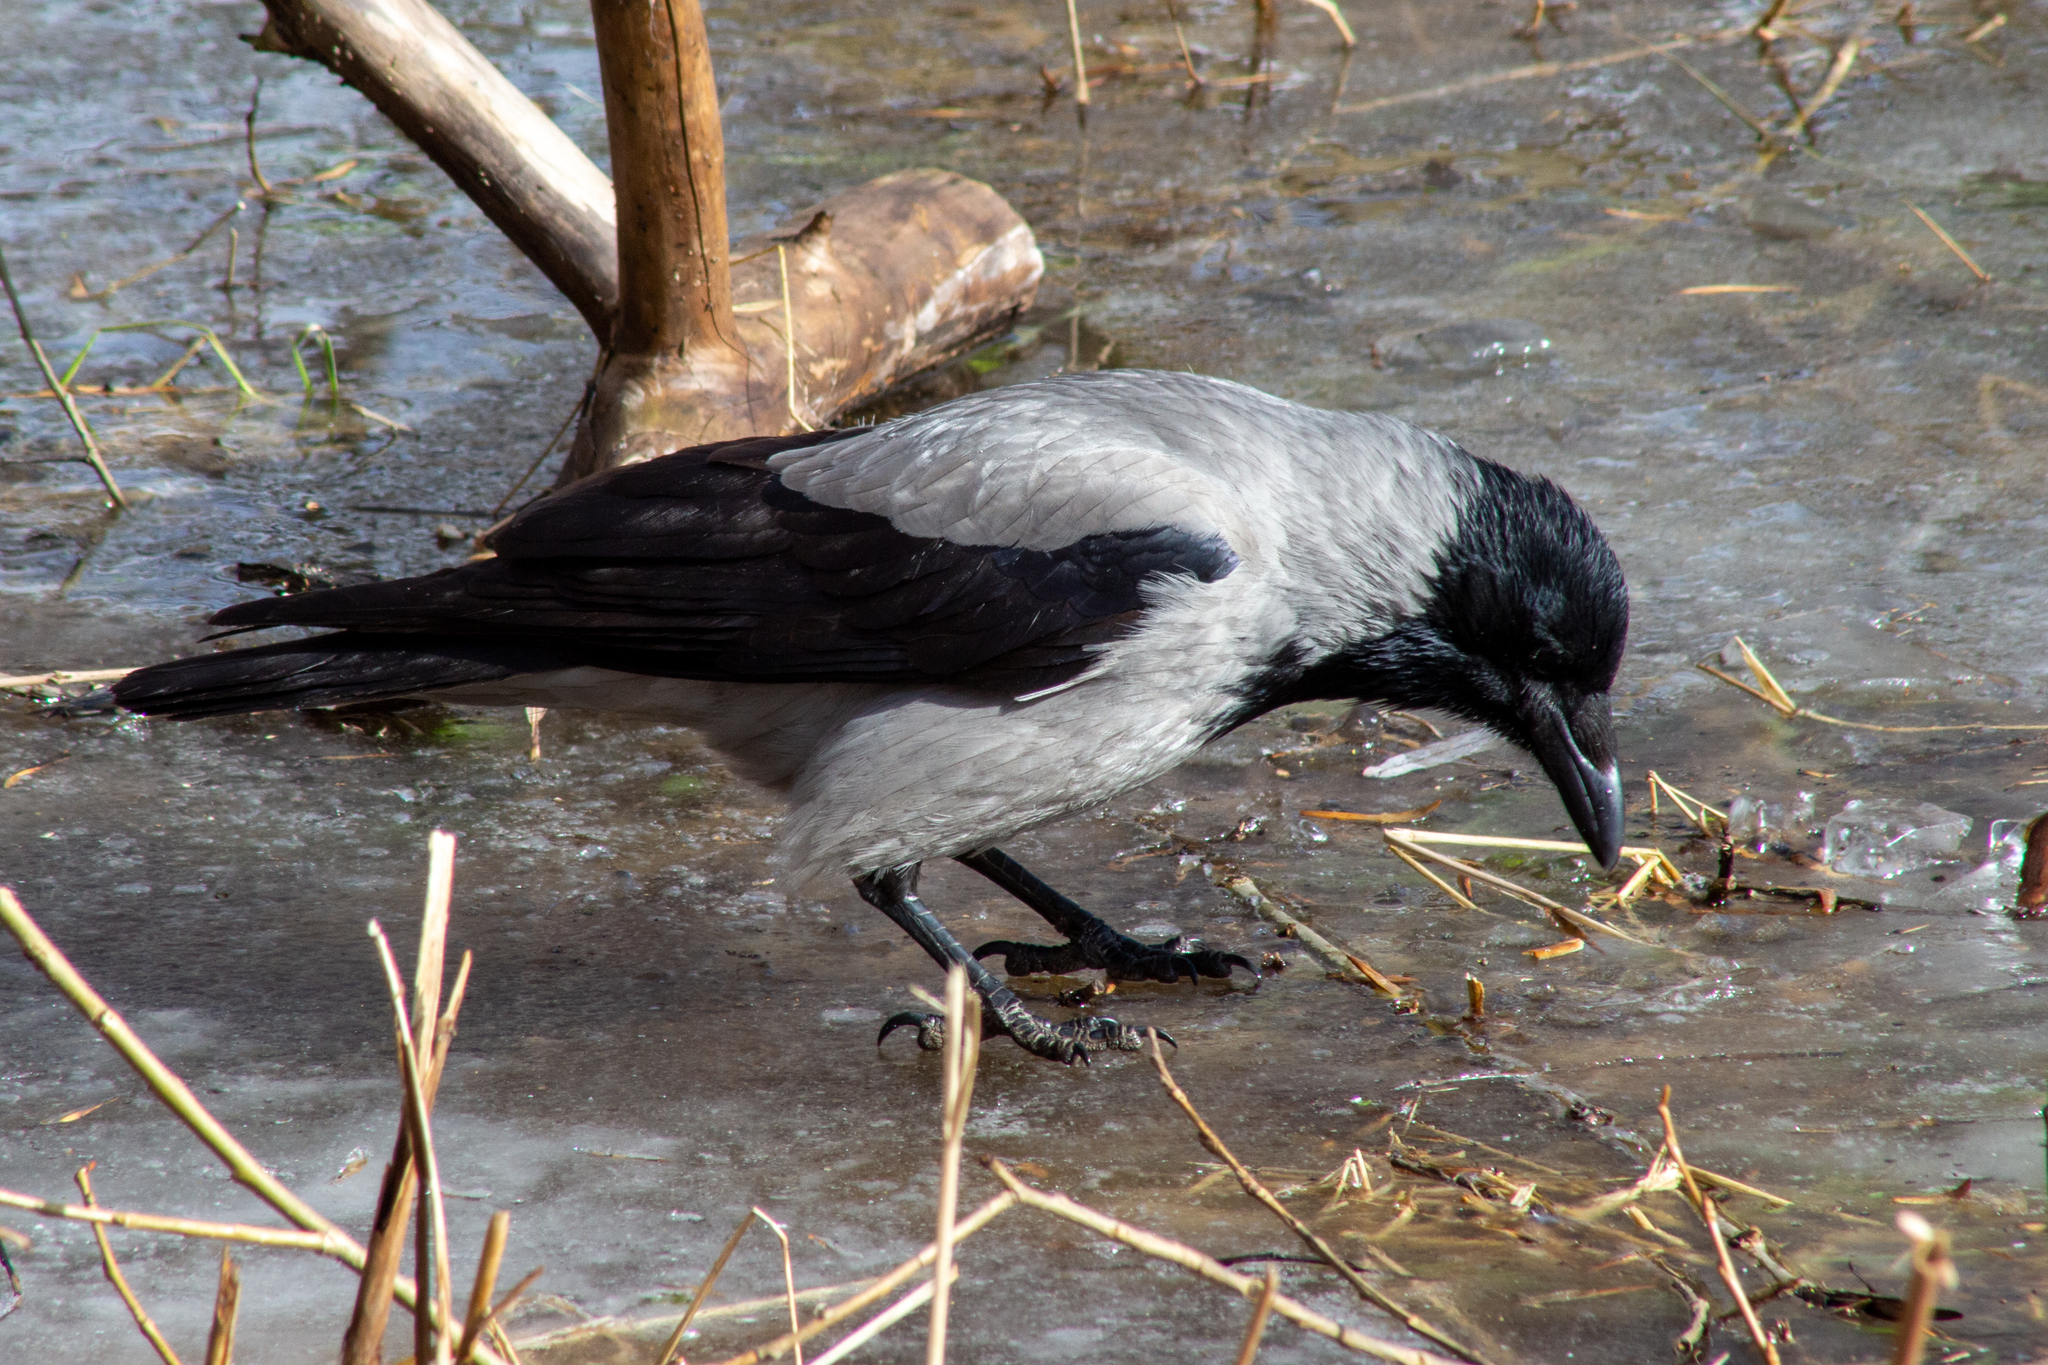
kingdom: Animalia
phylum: Chordata
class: Aves
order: Passeriformes
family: Corvidae
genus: Corvus
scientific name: Corvus cornix
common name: Hooded crow
